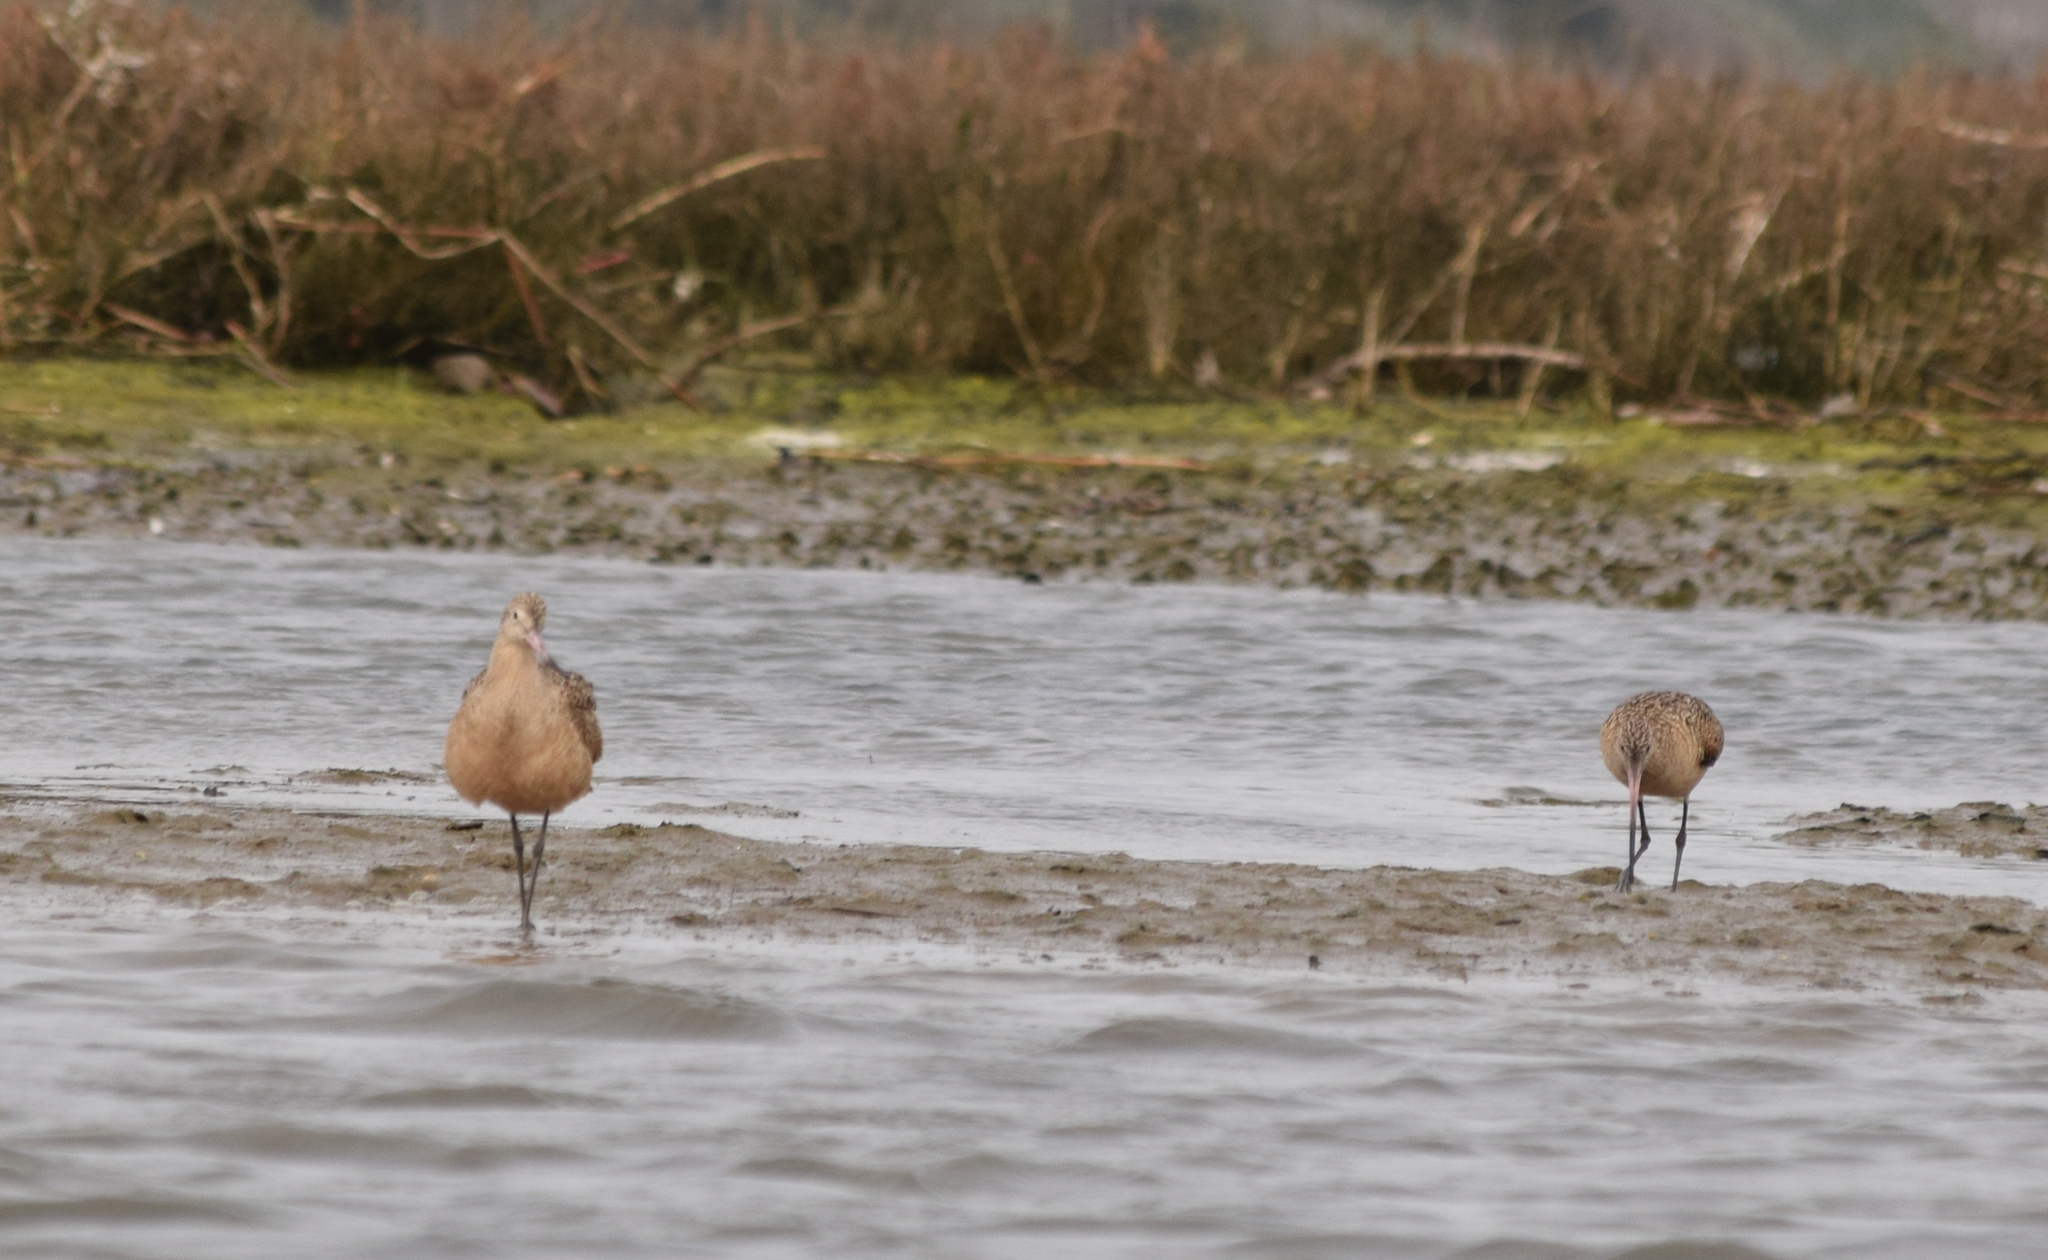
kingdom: Animalia
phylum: Chordata
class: Aves
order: Charadriiformes
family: Scolopacidae
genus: Limosa
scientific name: Limosa fedoa
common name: Marbled godwit
